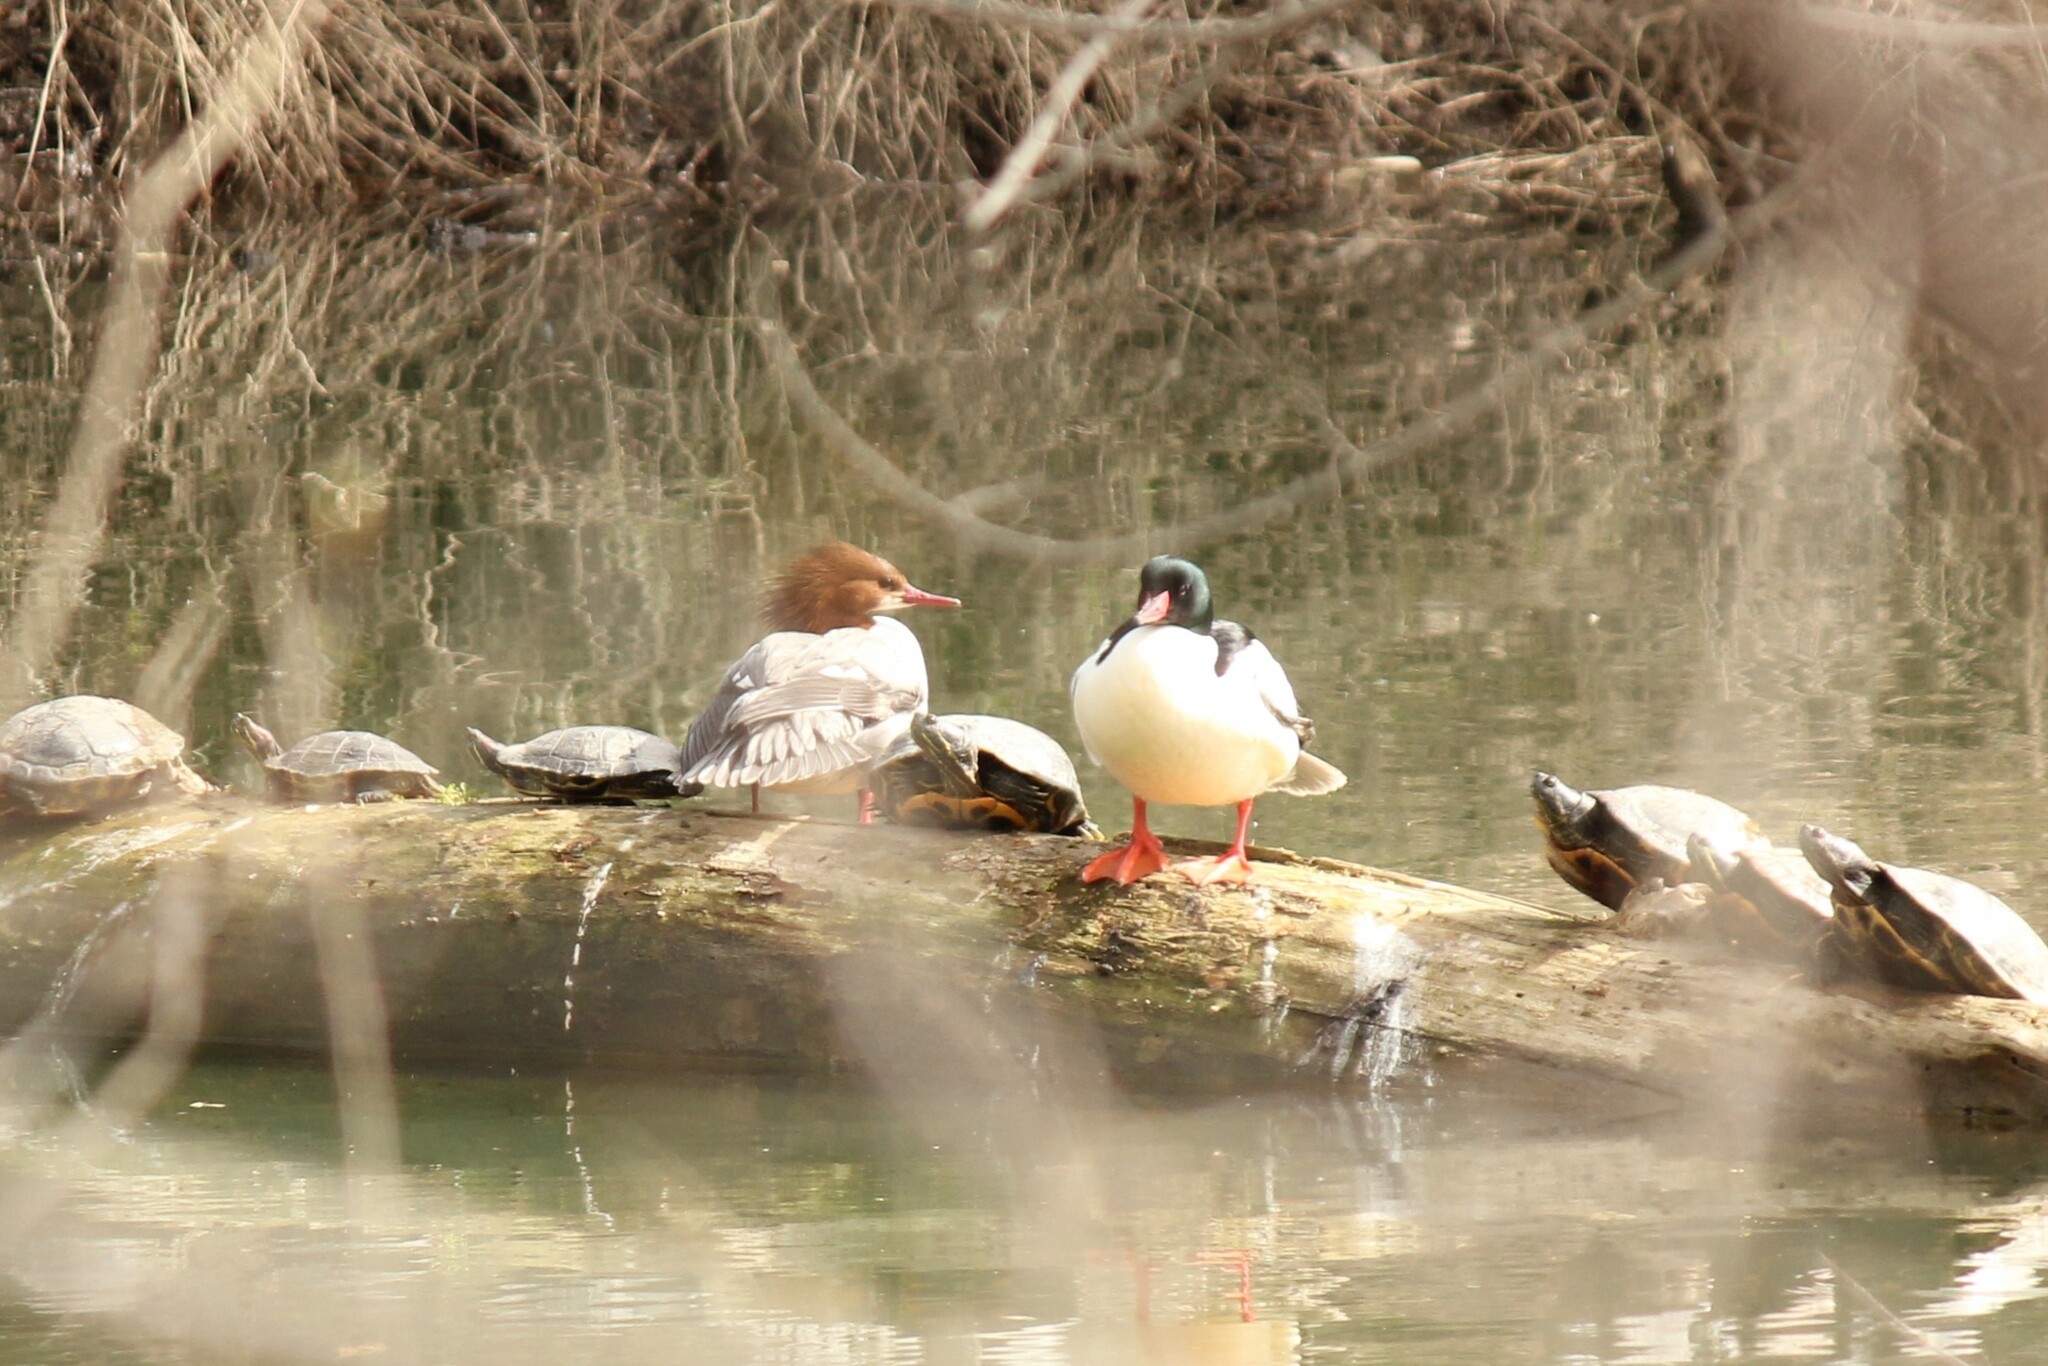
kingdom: Animalia
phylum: Chordata
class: Aves
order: Anseriformes
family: Anatidae
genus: Mergus
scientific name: Mergus merganser
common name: Common merganser
